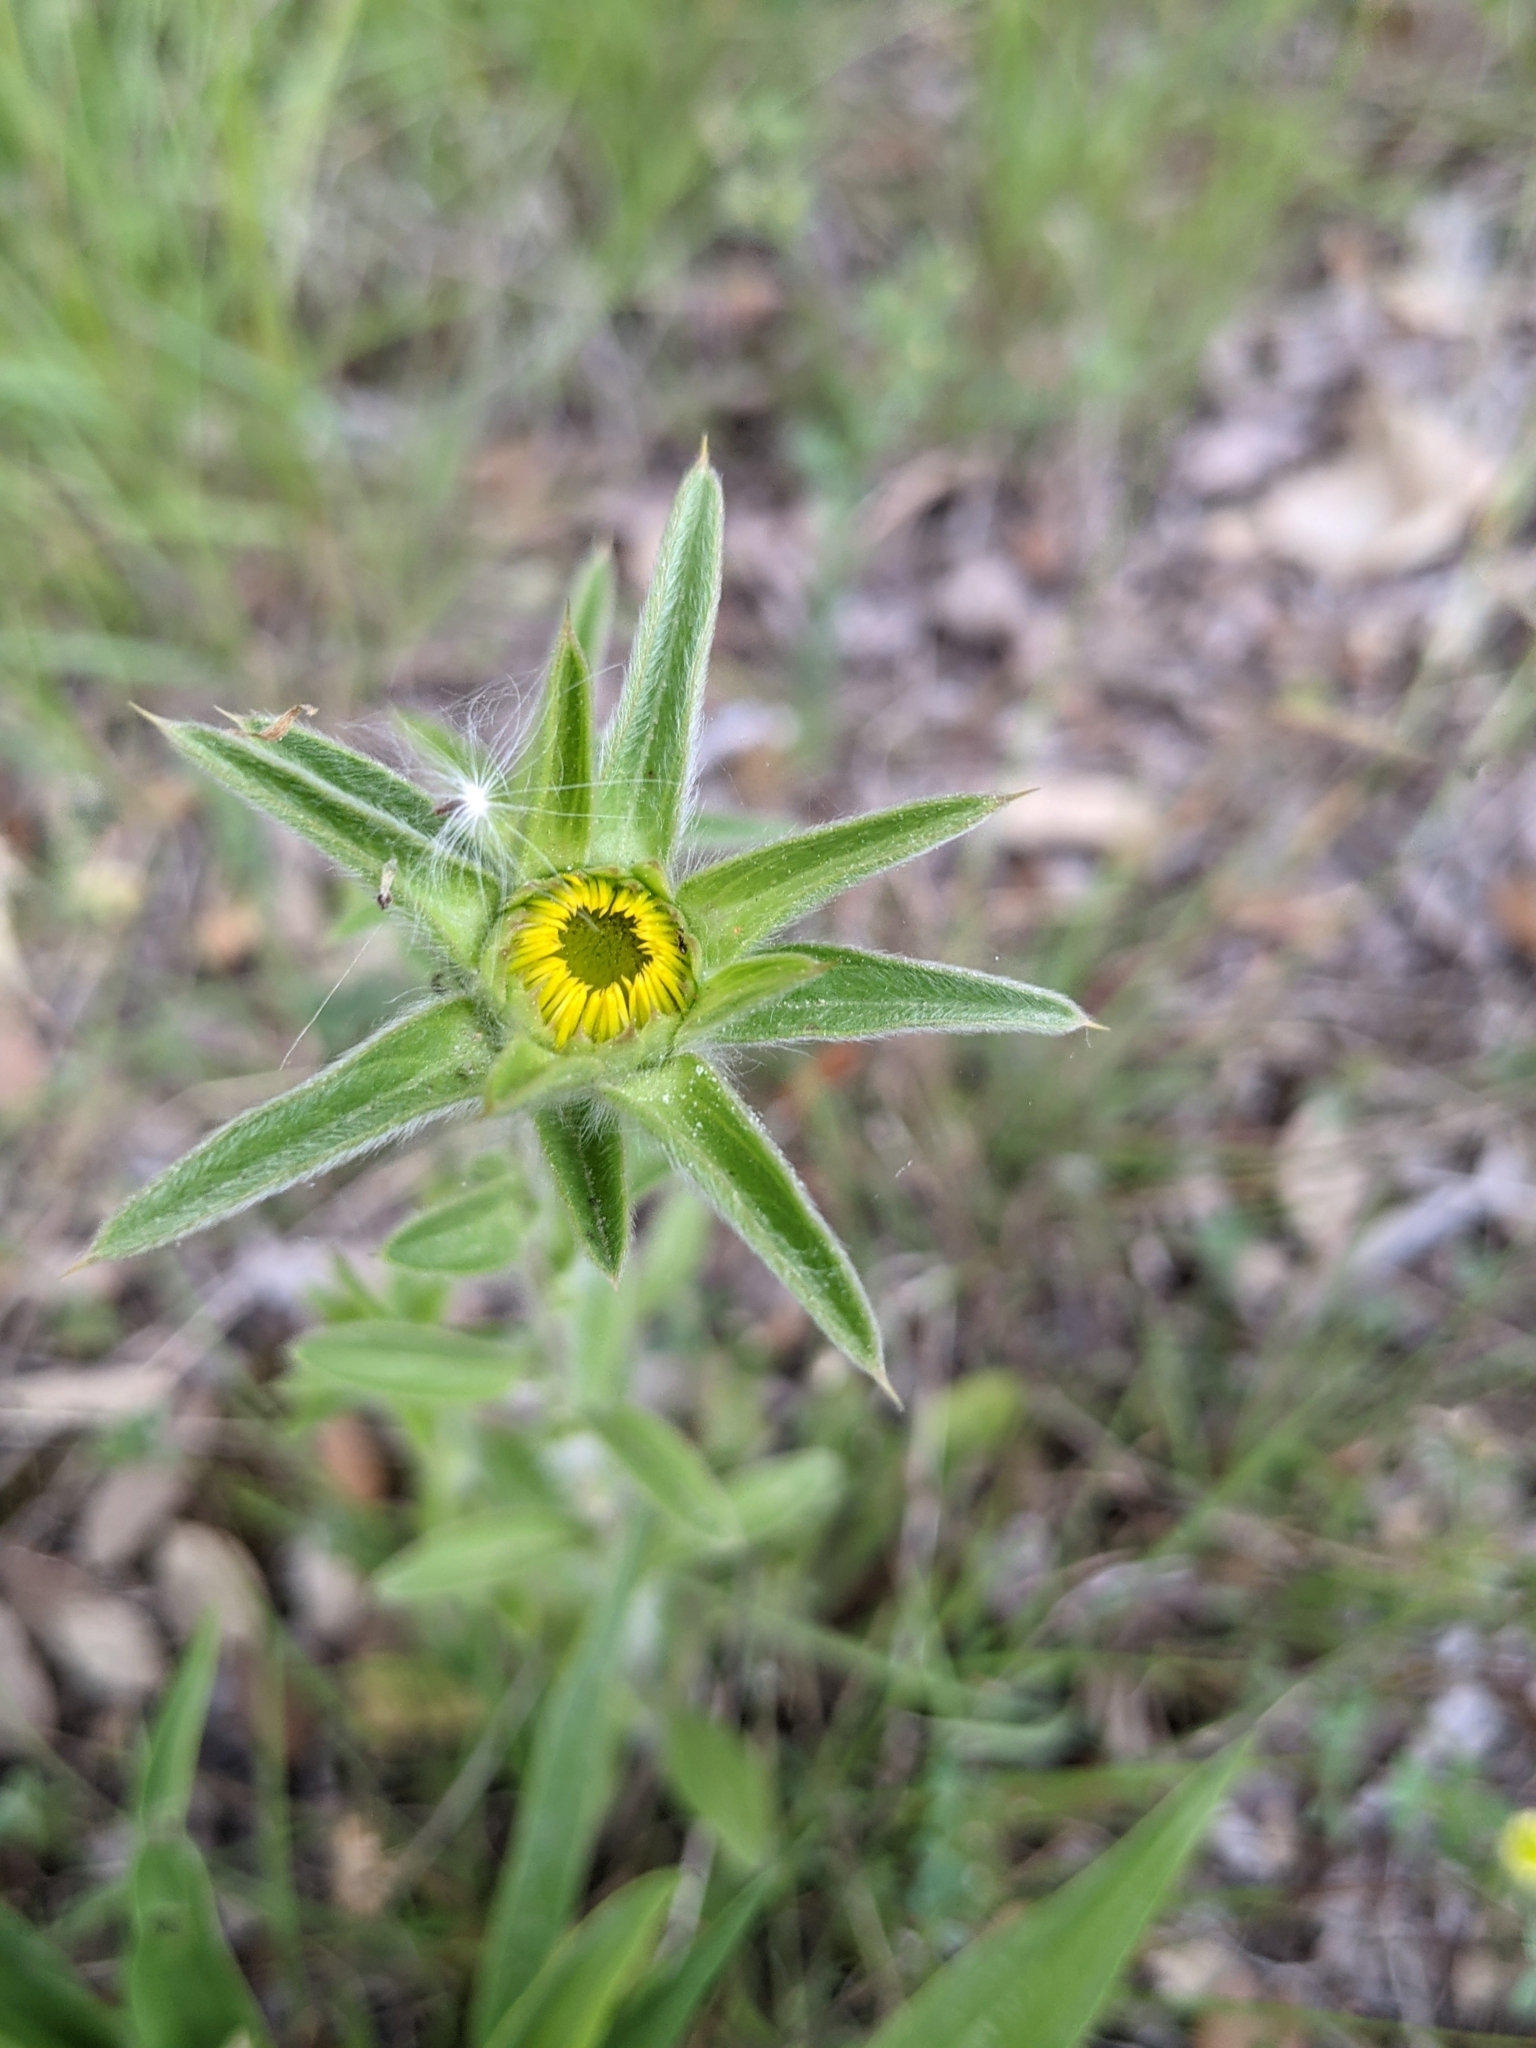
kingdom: Plantae
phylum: Tracheophyta
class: Magnoliopsida
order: Asterales
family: Asteraceae
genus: Pallenis
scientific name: Pallenis spinosa
